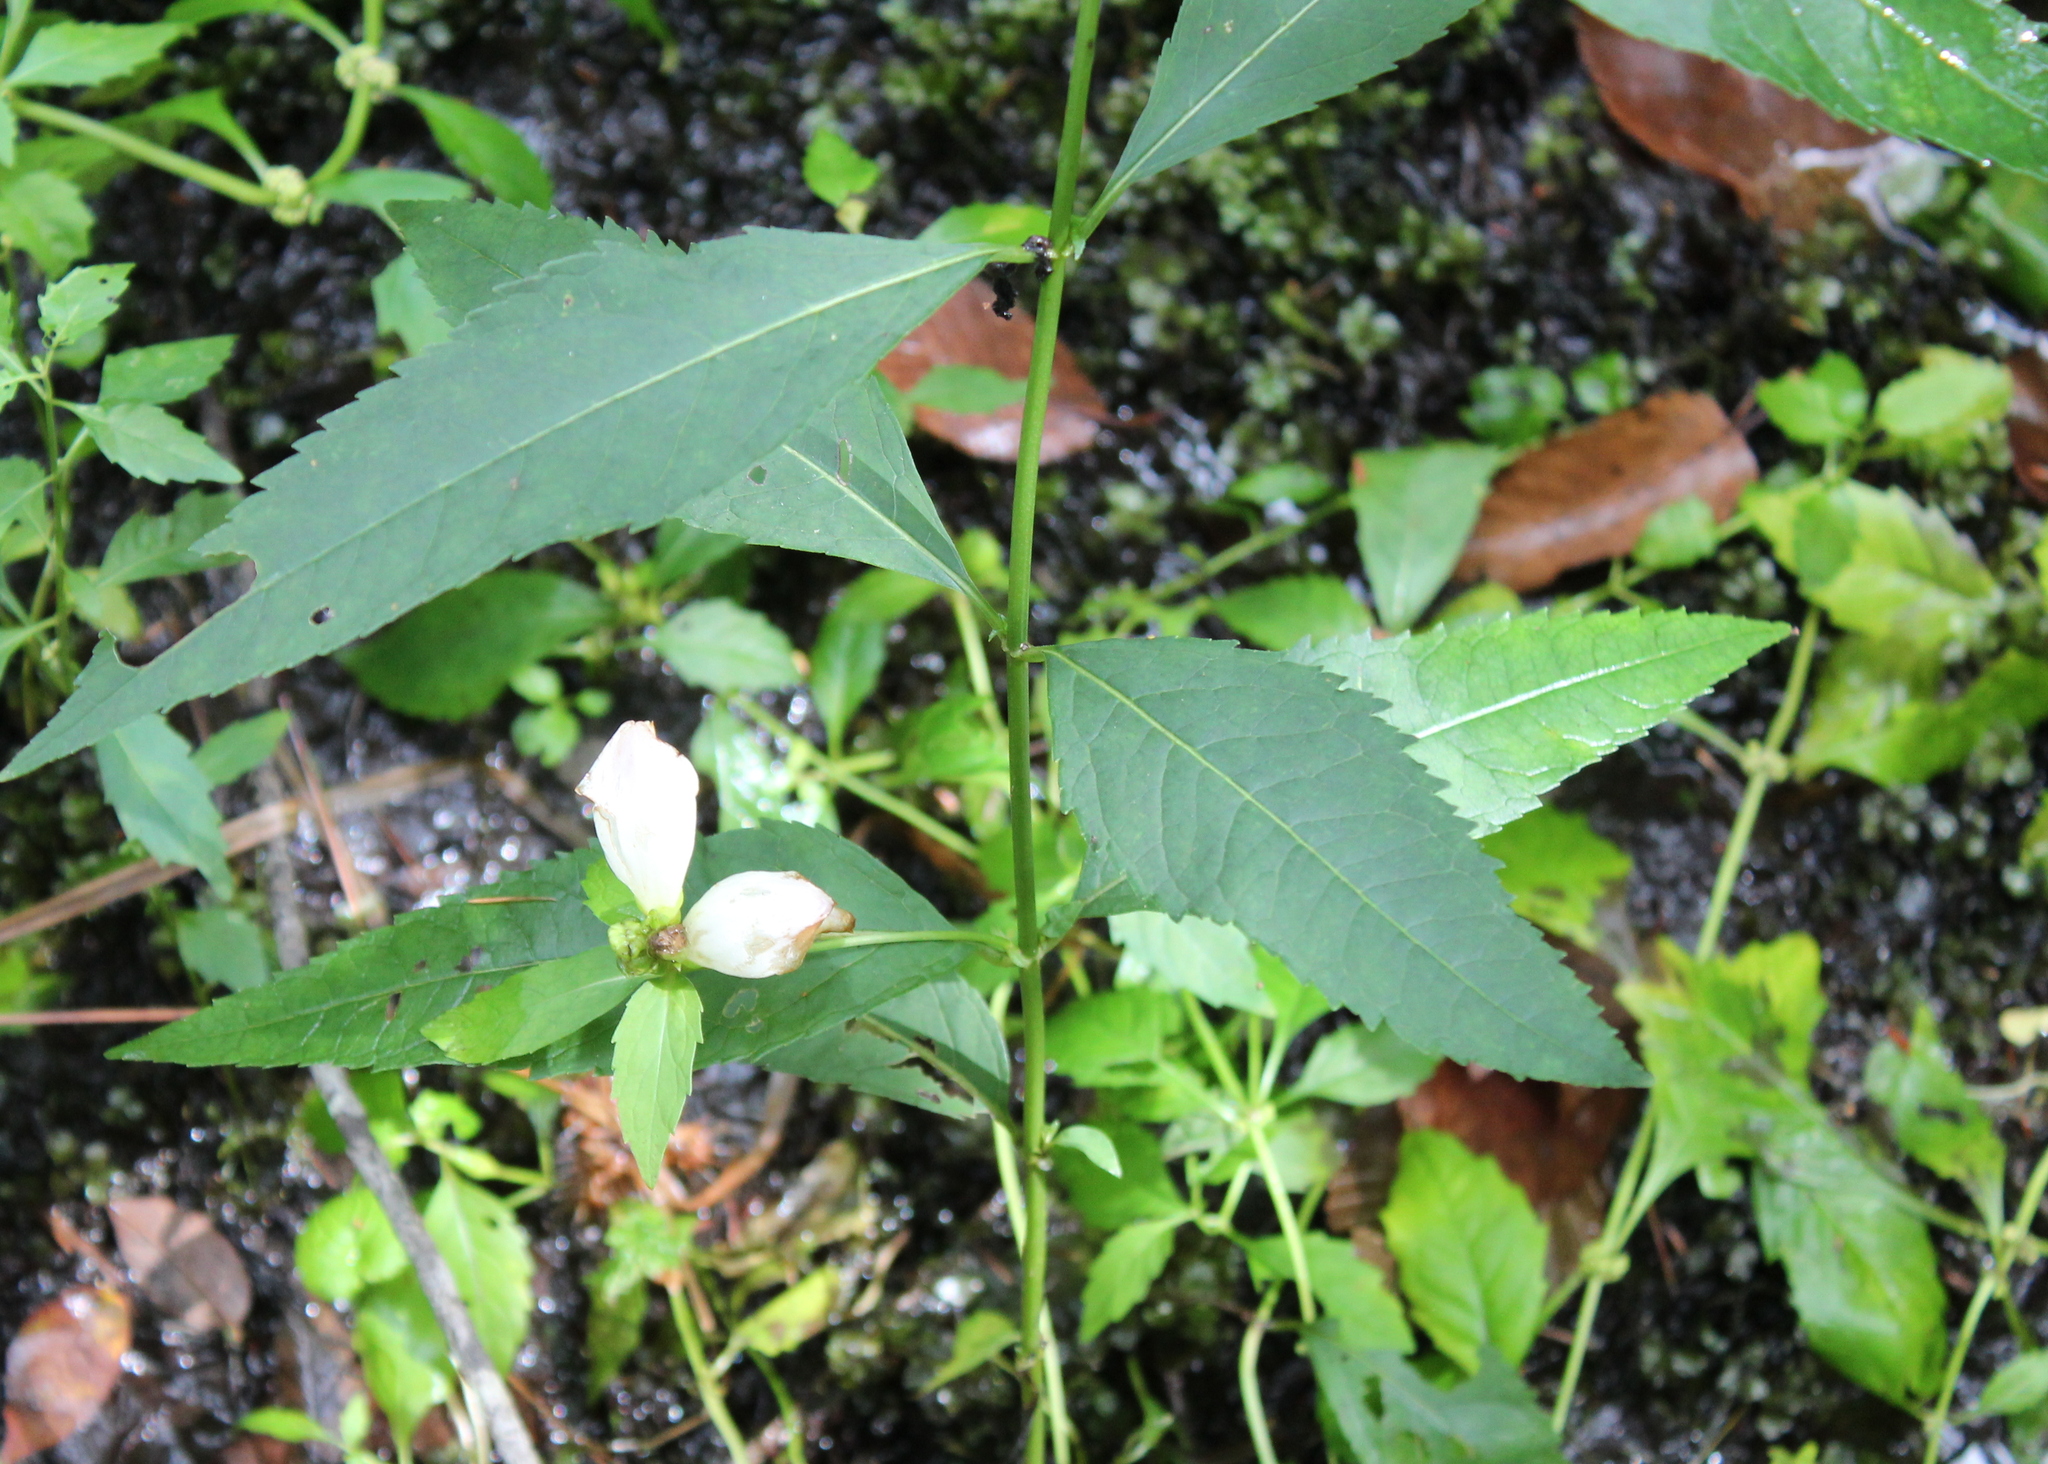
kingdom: Plantae
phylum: Tracheophyta
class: Magnoliopsida
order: Lamiales
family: Plantaginaceae
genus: Chelone
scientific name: Chelone glabra
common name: Snakehead
